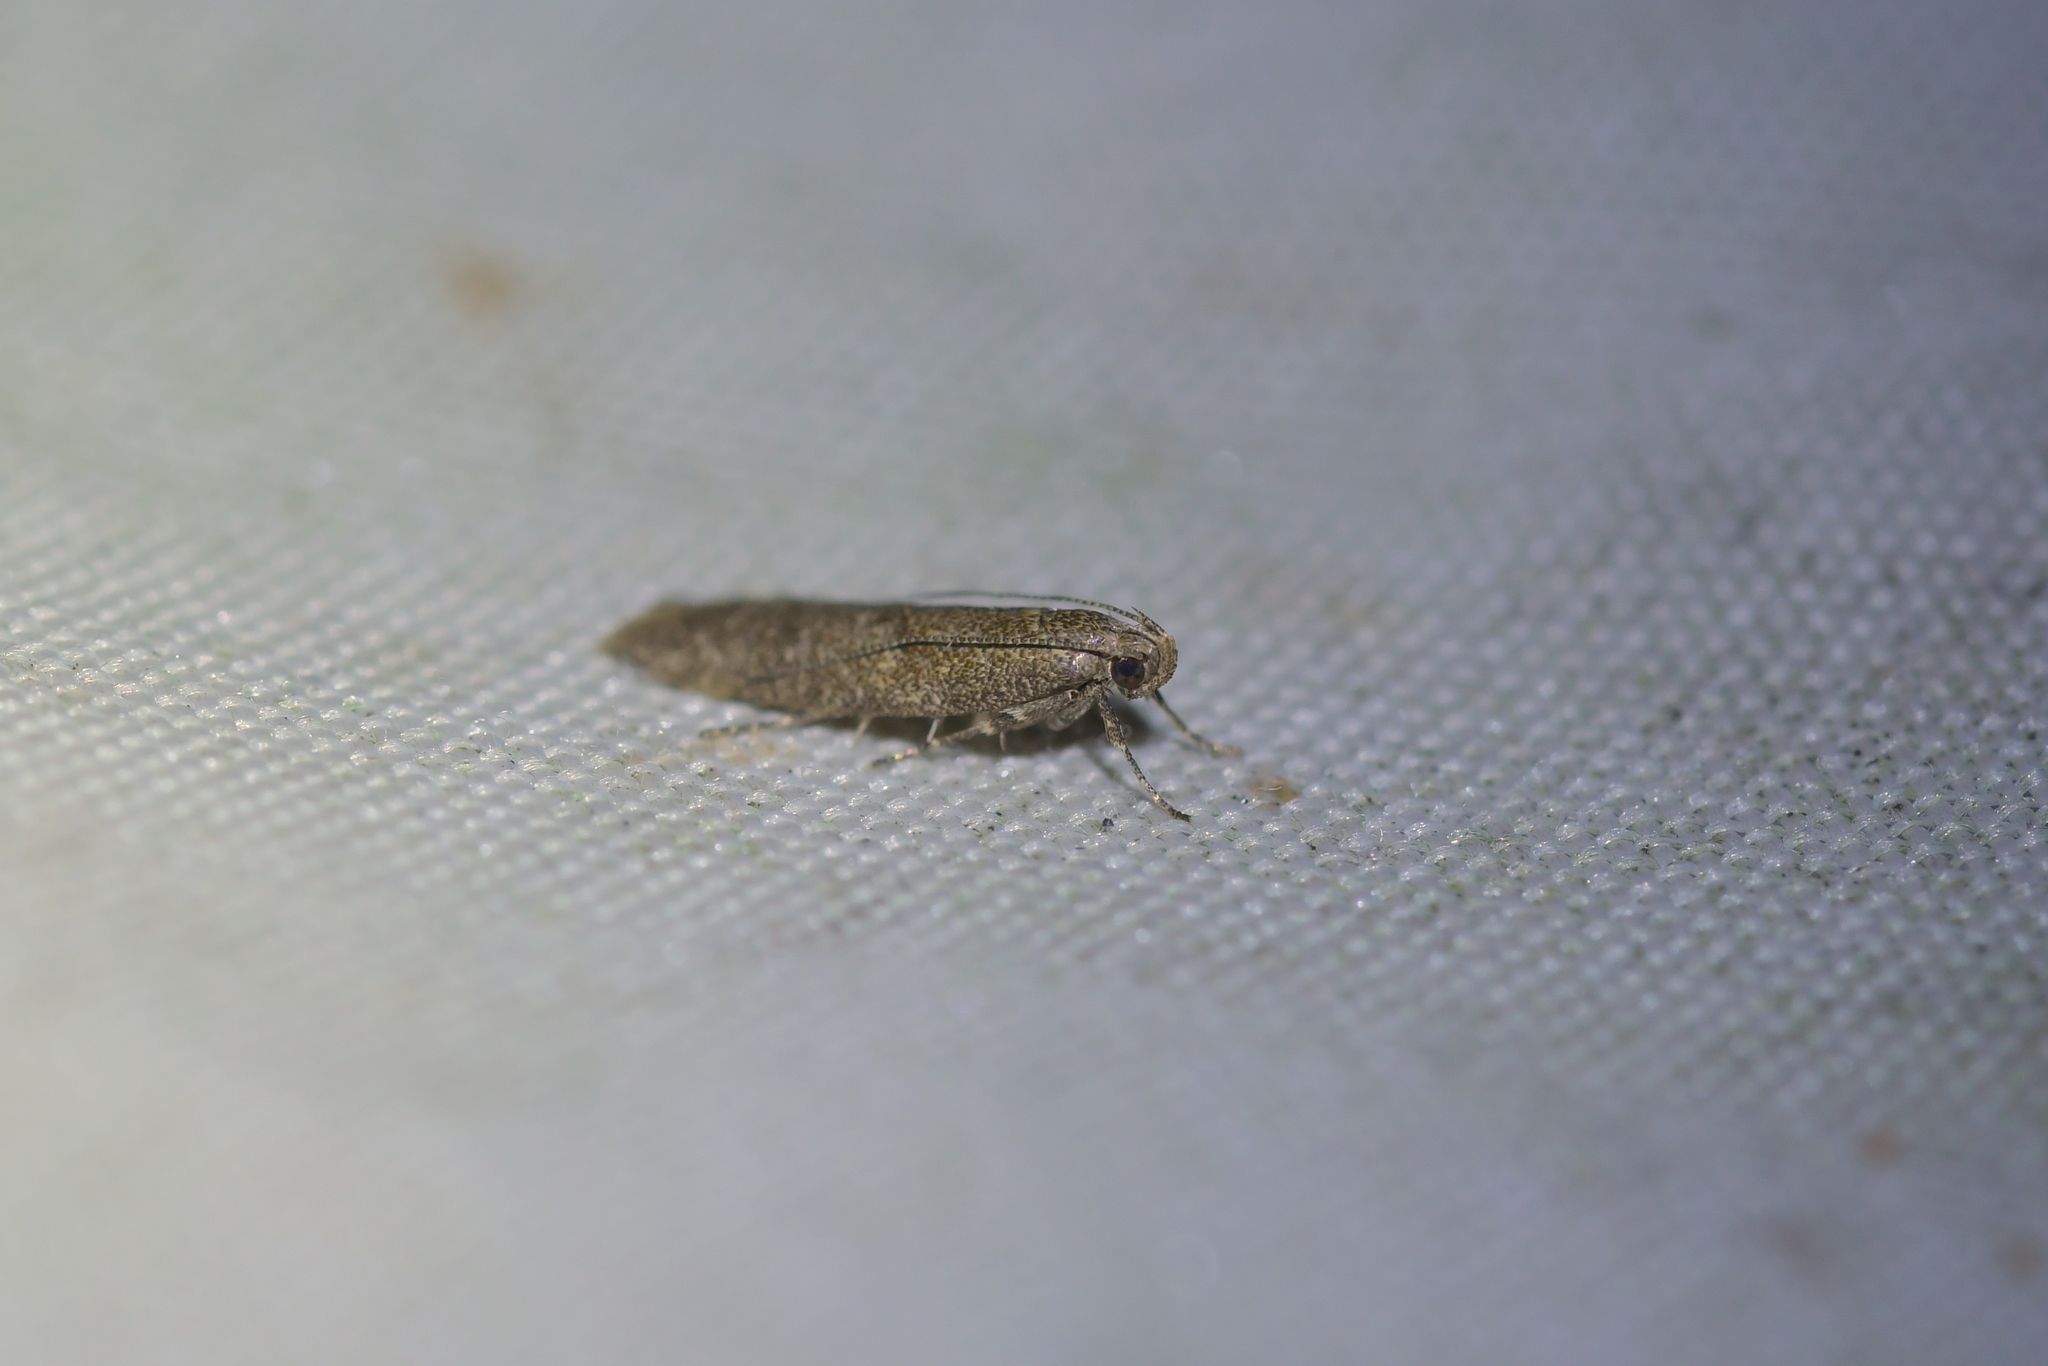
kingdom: Animalia
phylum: Arthropoda
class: Insecta
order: Lepidoptera
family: Oecophoridae
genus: Gymnobathra
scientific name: Gymnobathra tholodella
